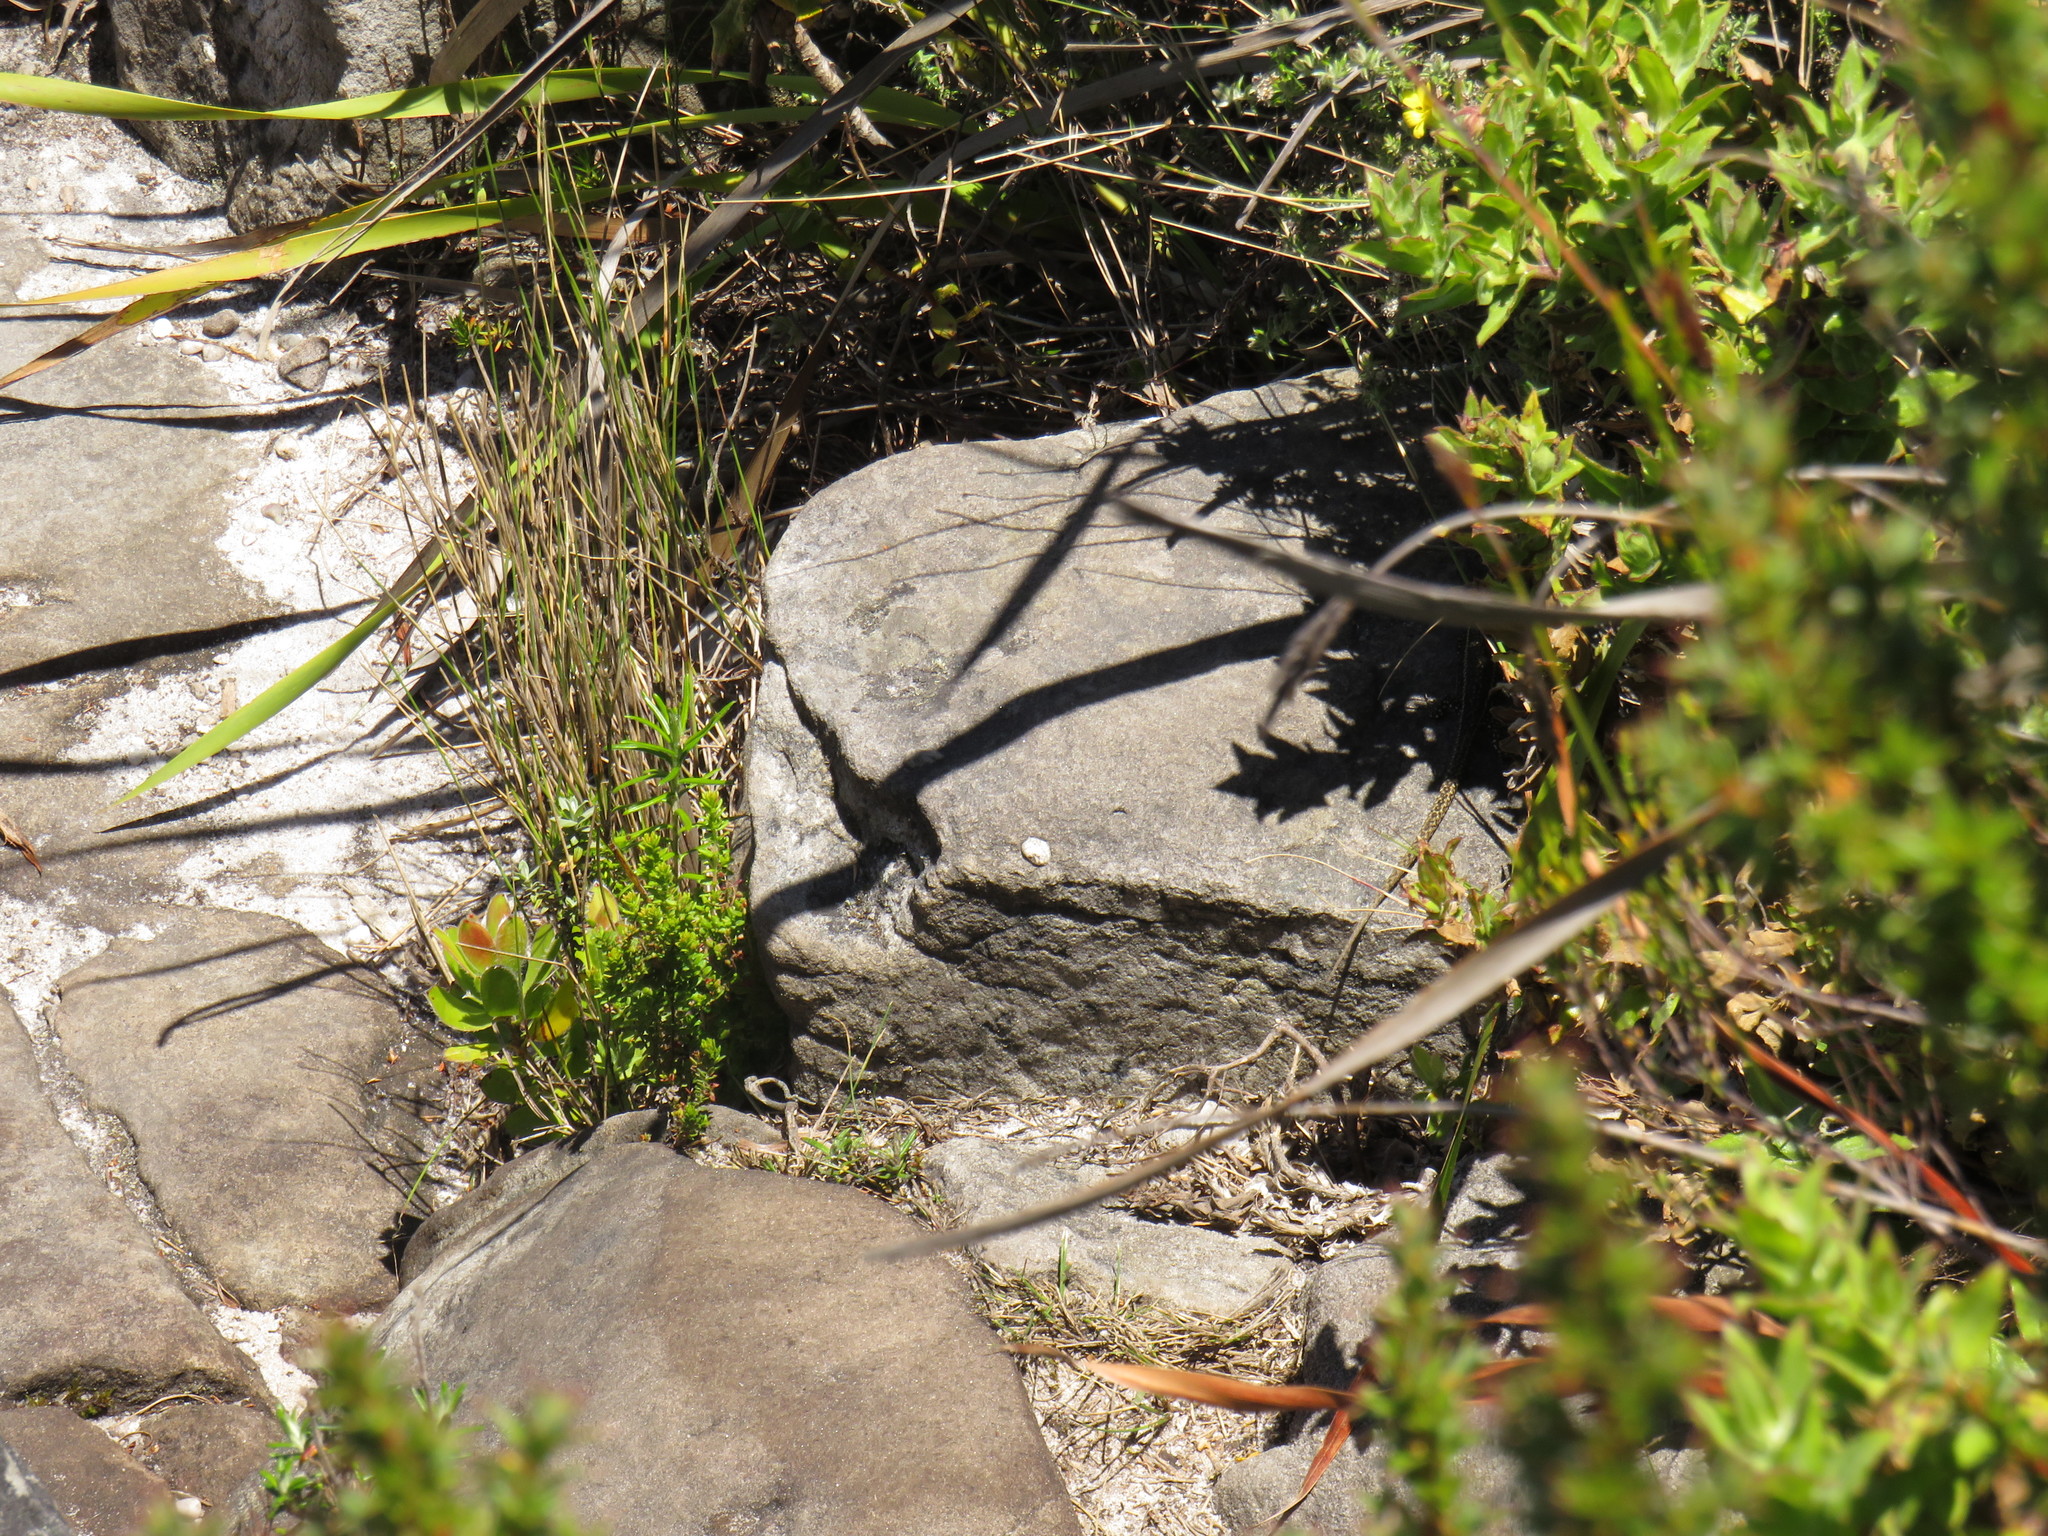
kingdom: Animalia
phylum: Chordata
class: Squamata
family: Lacertidae
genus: Tropidosaura
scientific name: Tropidosaura montana
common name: Green-striped mountain lizard
